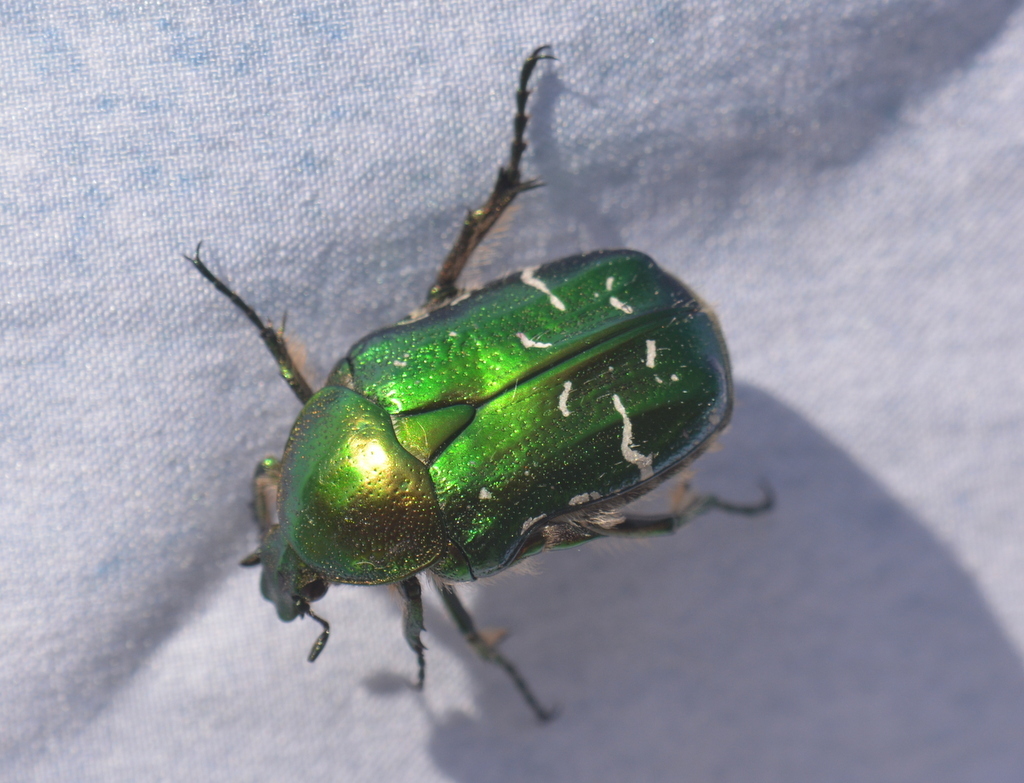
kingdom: Animalia
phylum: Arthropoda
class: Insecta
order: Coleoptera
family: Scarabaeidae
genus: Cetonia
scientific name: Cetonia aurata
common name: Rose chafer
